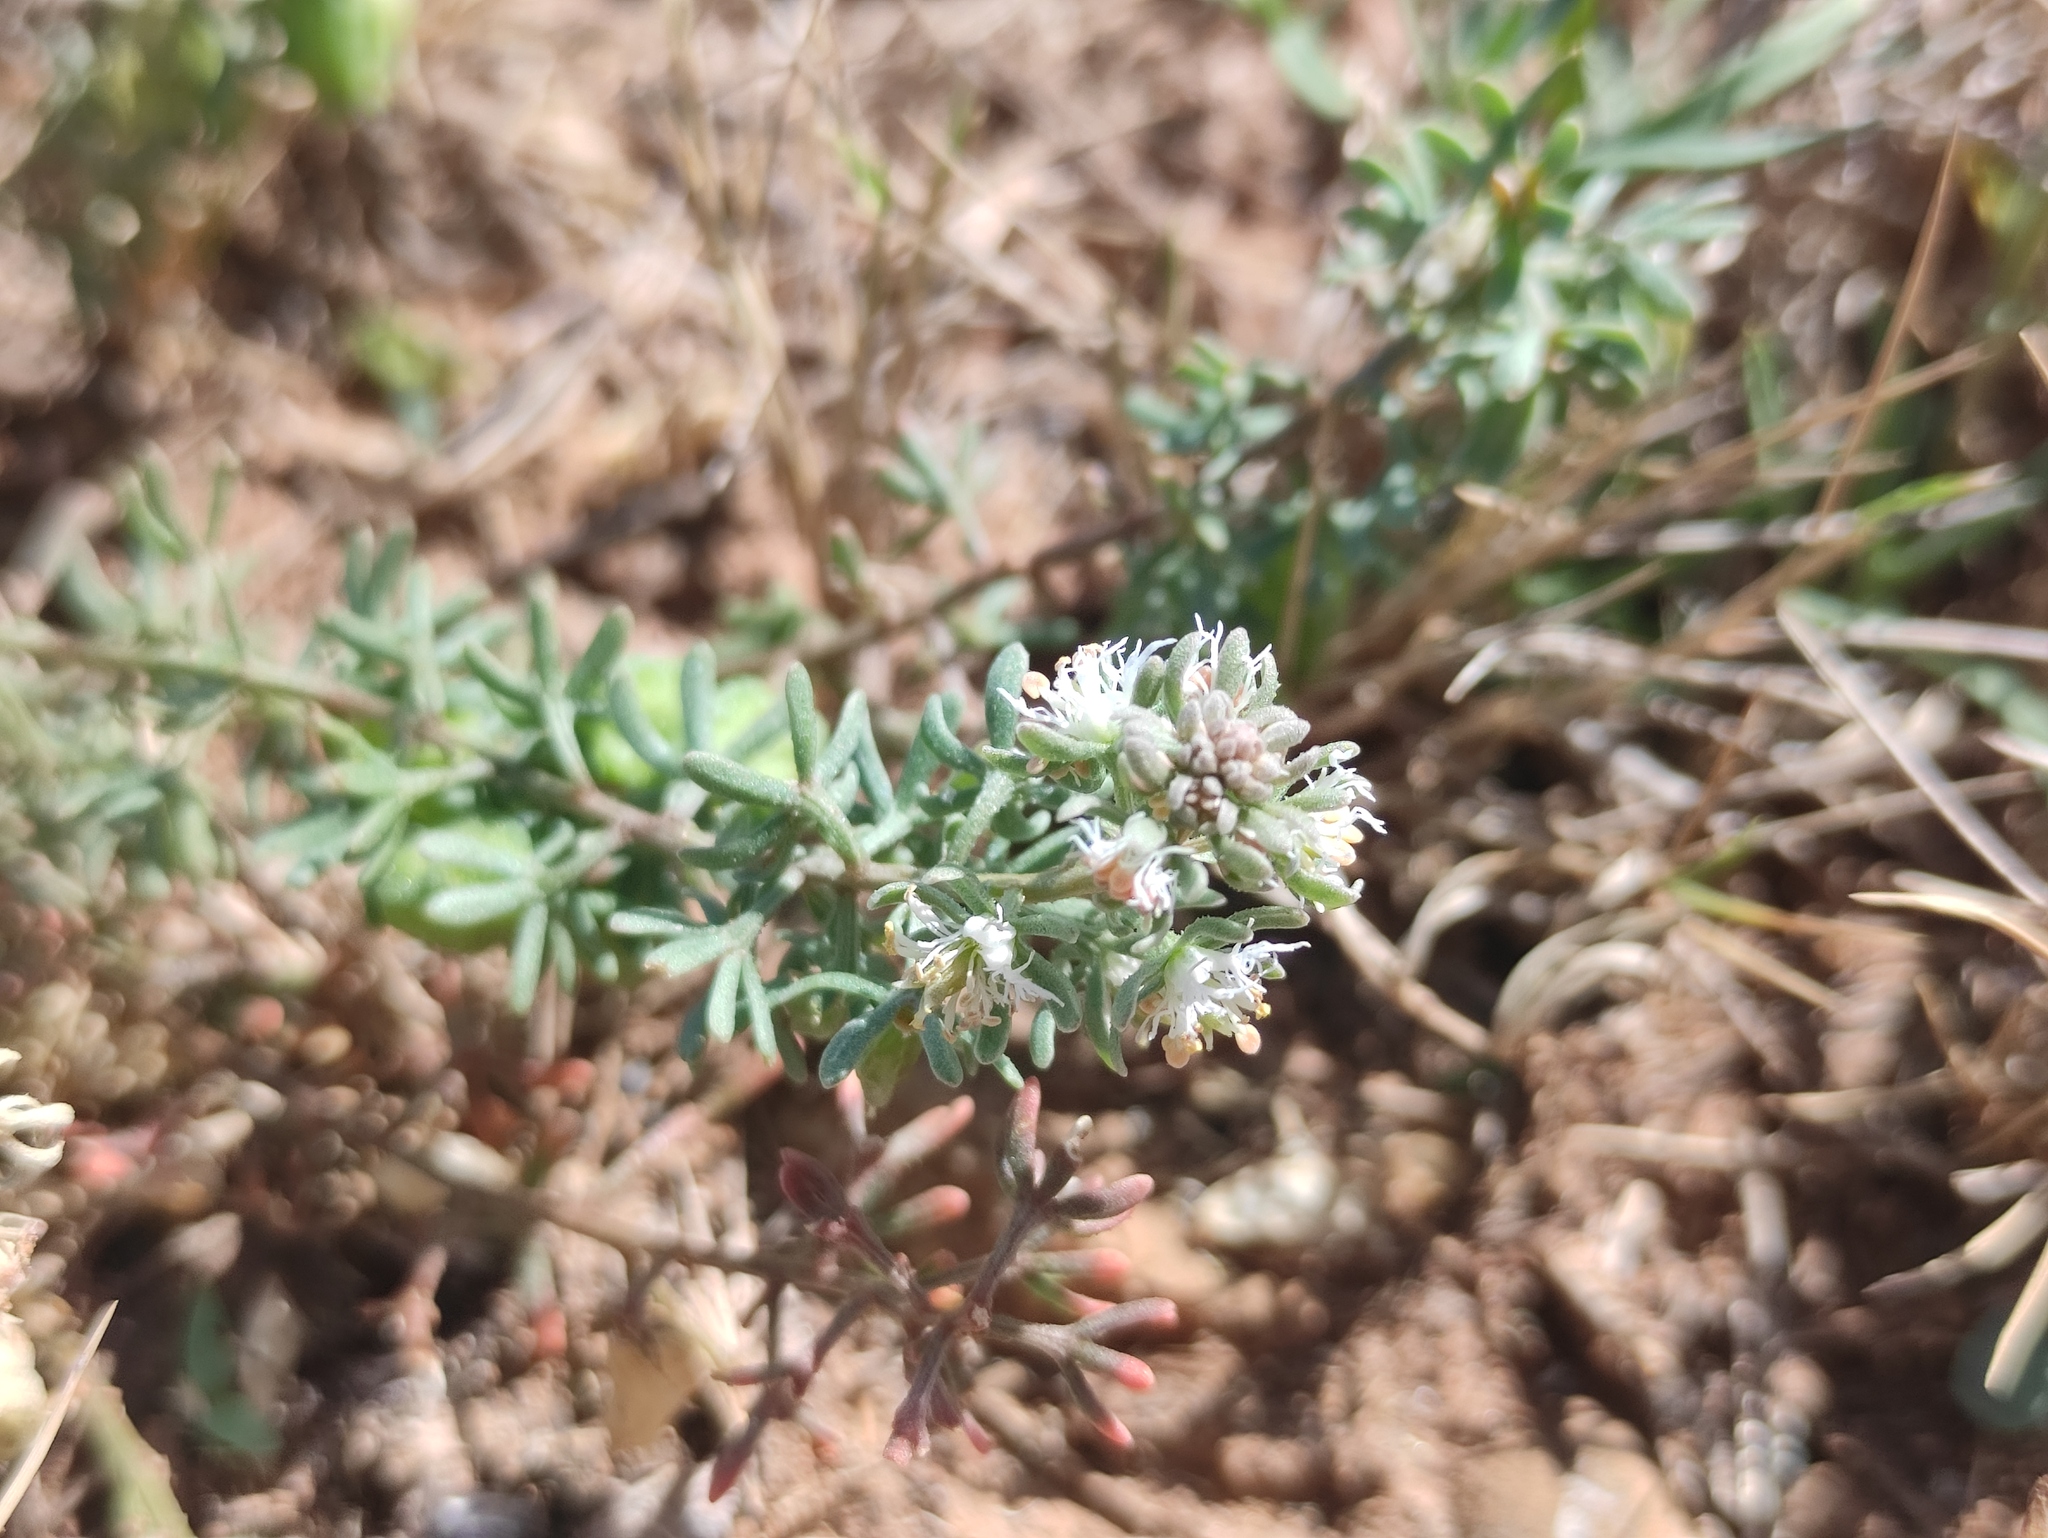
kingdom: Plantae
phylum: Tracheophyta
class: Magnoliopsida
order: Brassicales
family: Resedaceae
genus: Reseda
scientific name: Reseda phyteuma
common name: Corn mignonette
